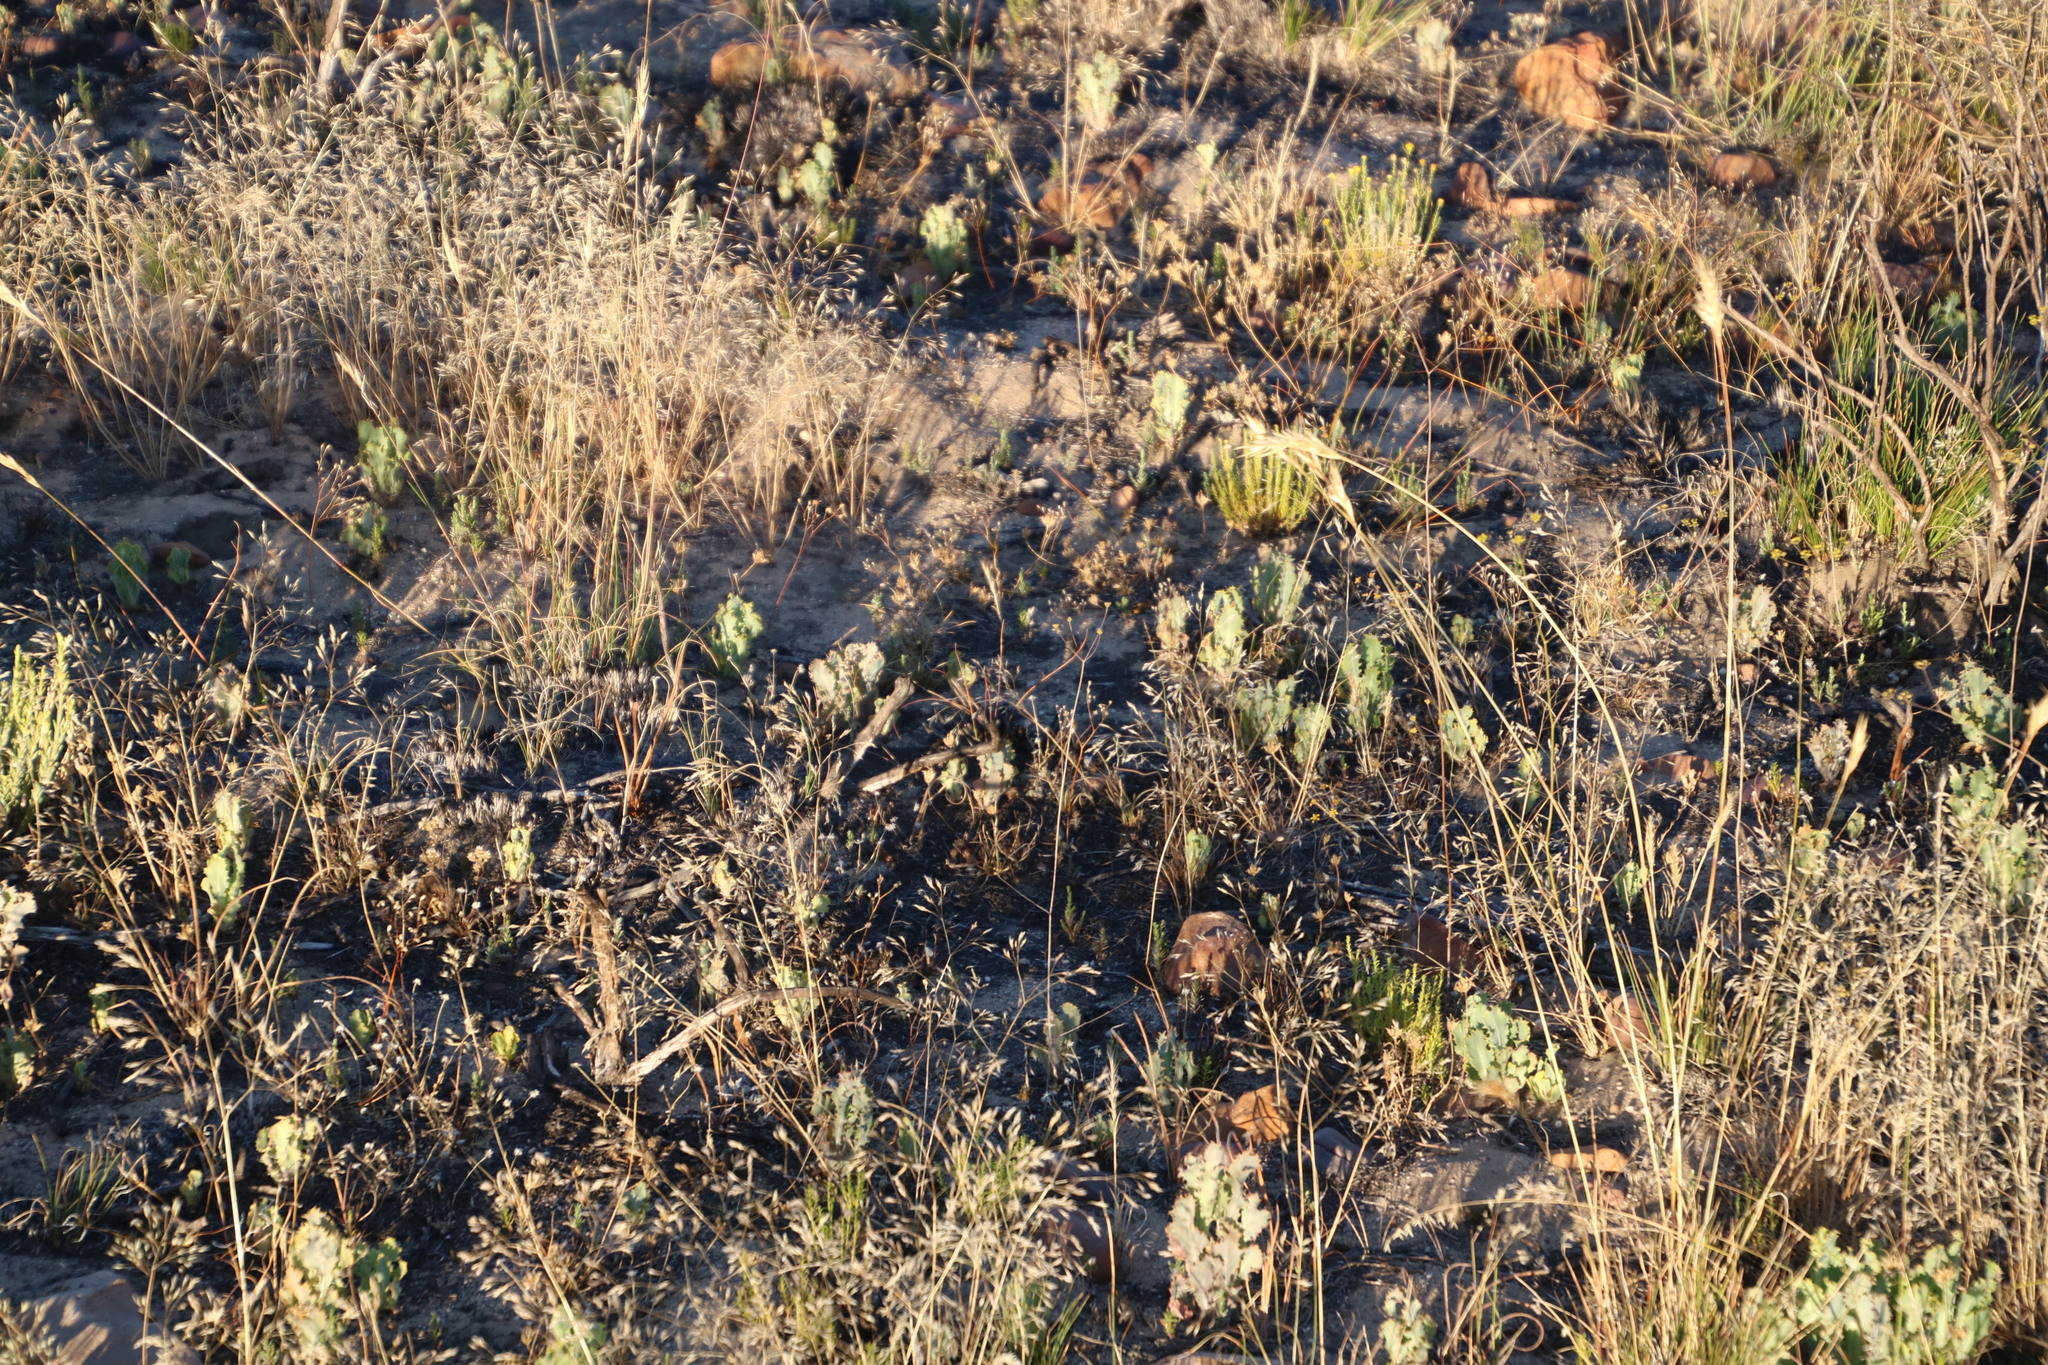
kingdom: Plantae
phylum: Tracheophyta
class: Magnoliopsida
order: Asterales
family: Asteraceae
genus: Othonna
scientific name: Othonna parviflora
